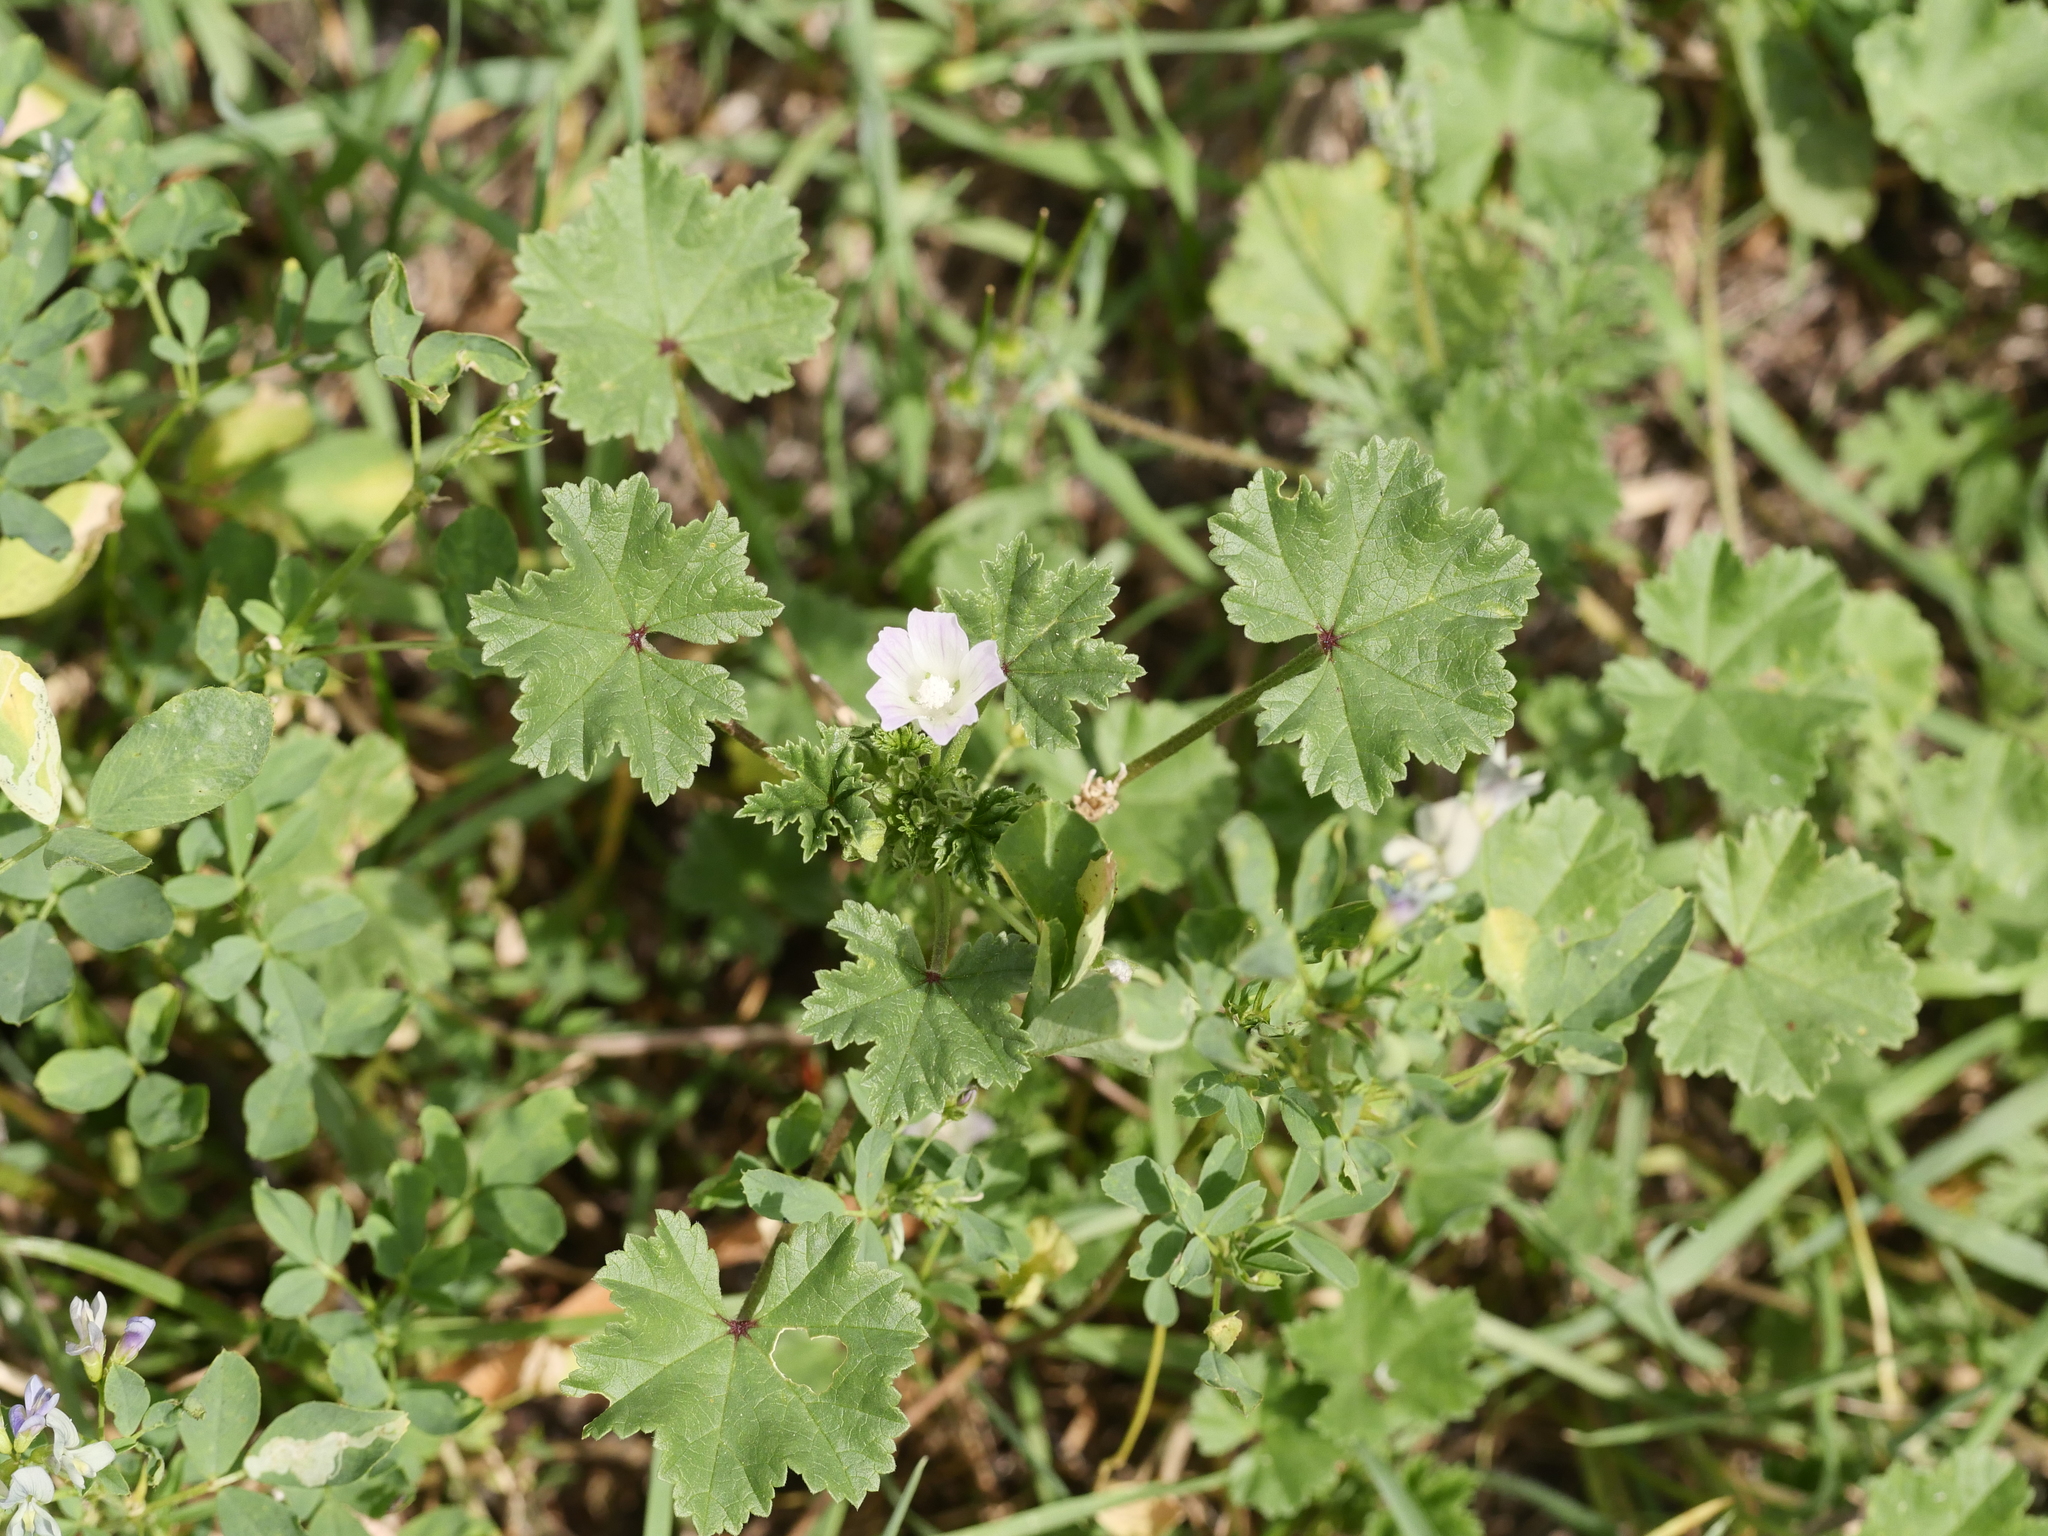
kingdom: Plantae
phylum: Tracheophyta
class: Magnoliopsida
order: Malvales
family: Malvaceae
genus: Malva
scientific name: Malva neglecta
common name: Common mallow
